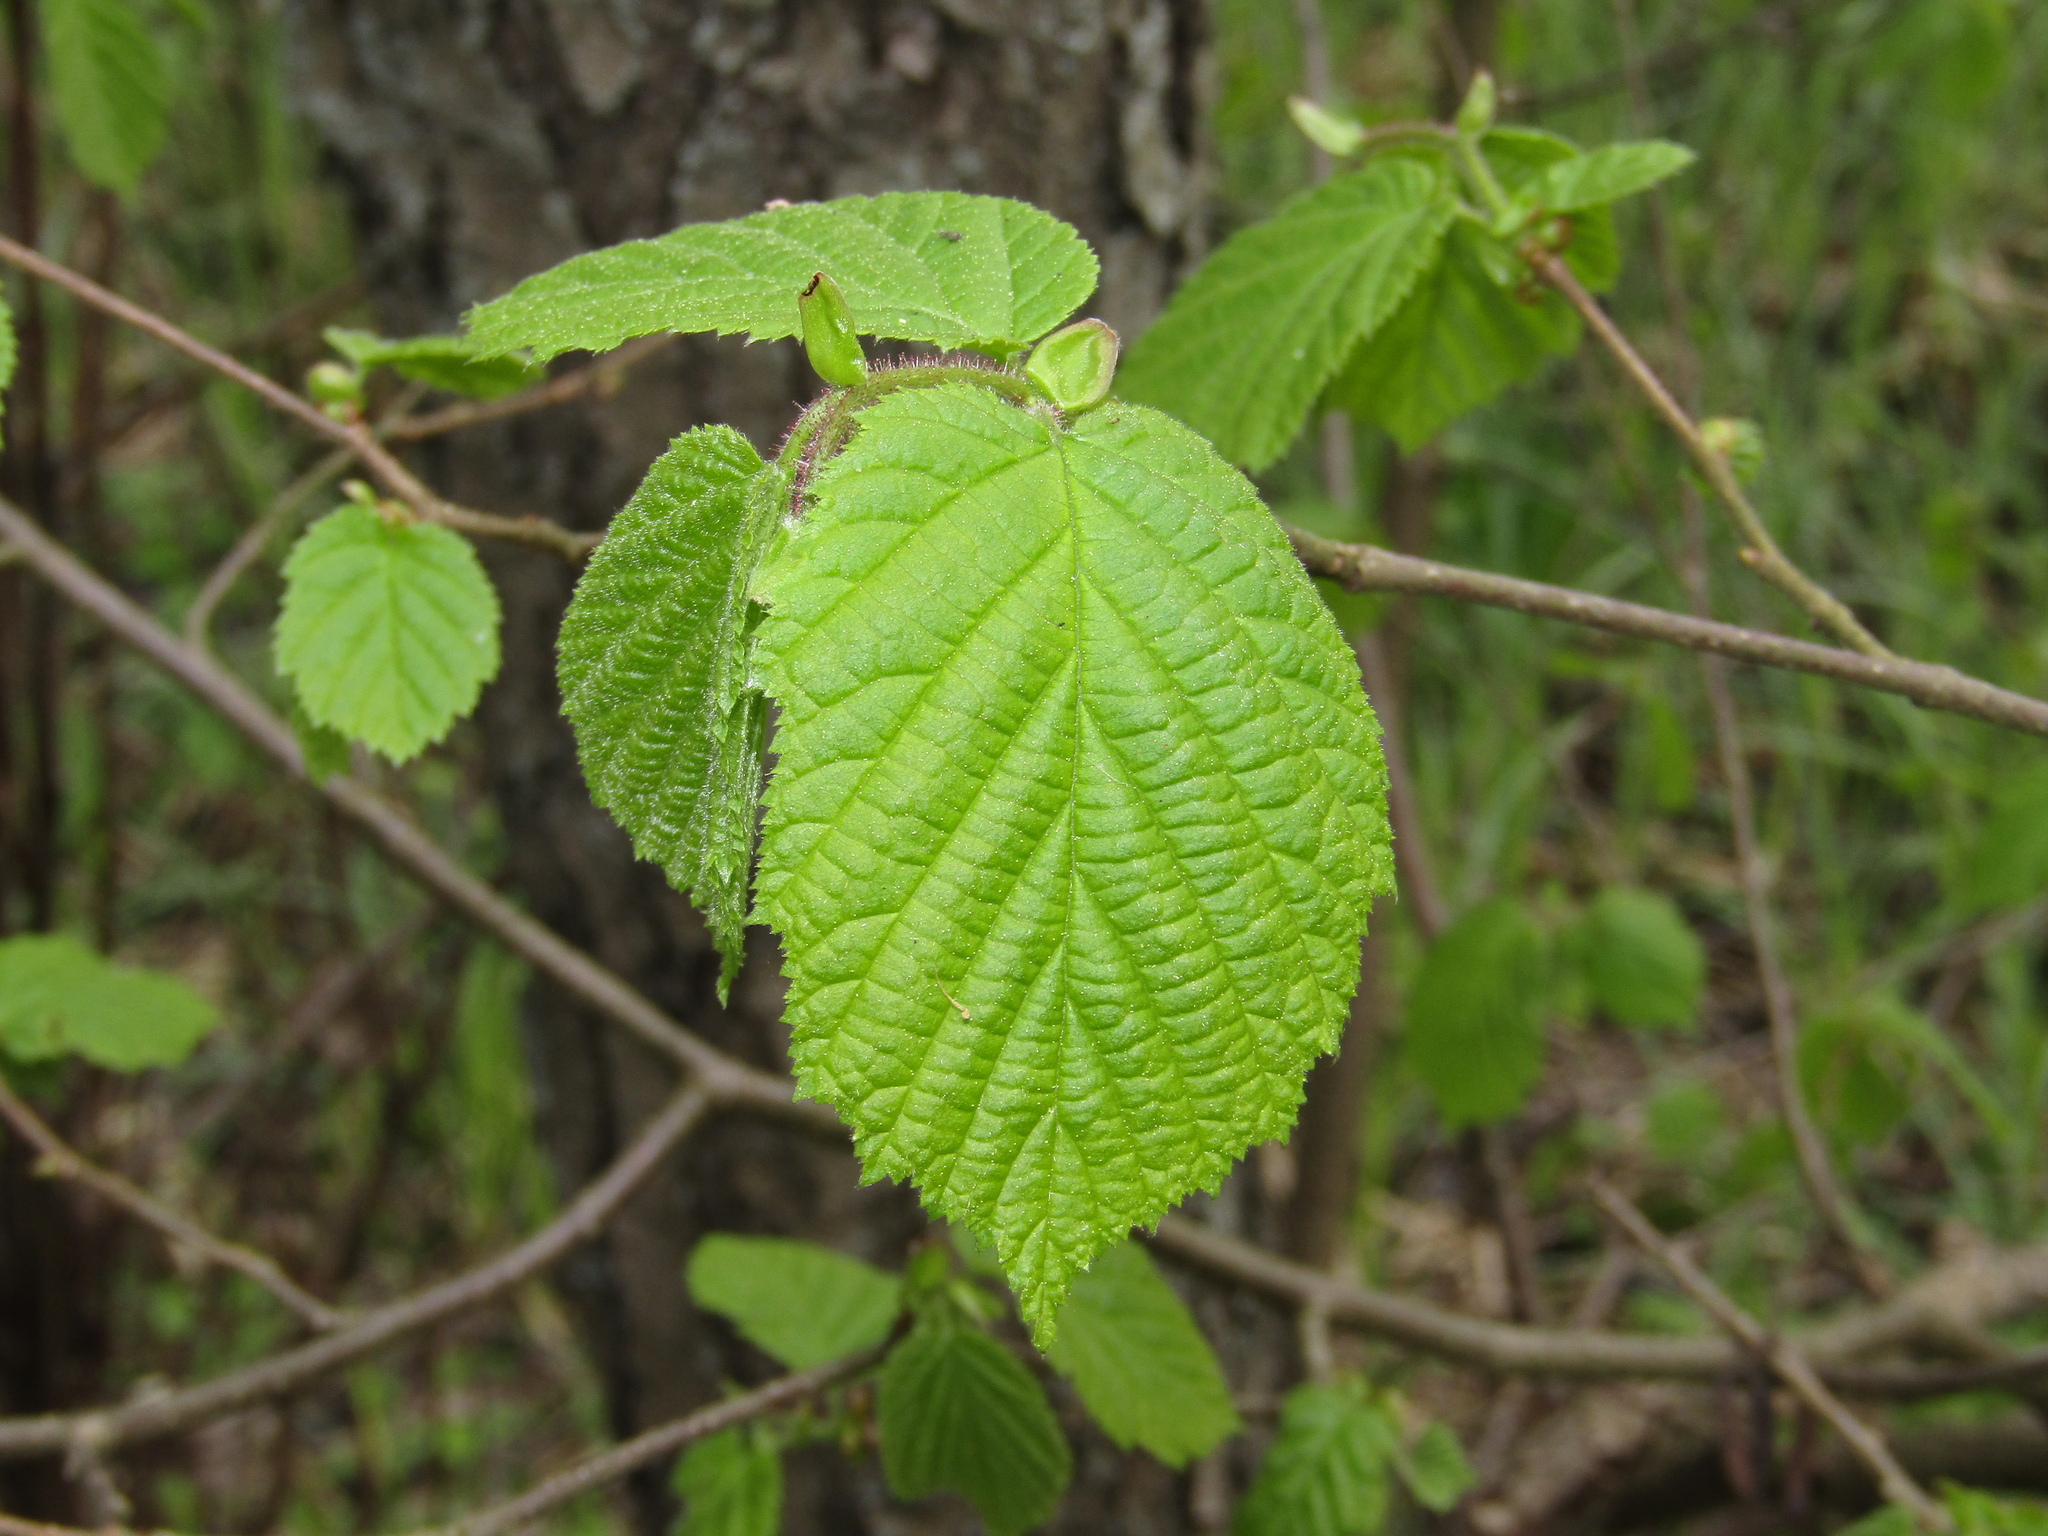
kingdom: Plantae
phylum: Tracheophyta
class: Magnoliopsida
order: Fagales
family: Betulaceae
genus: Corylus
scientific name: Corylus avellana
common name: European hazel
